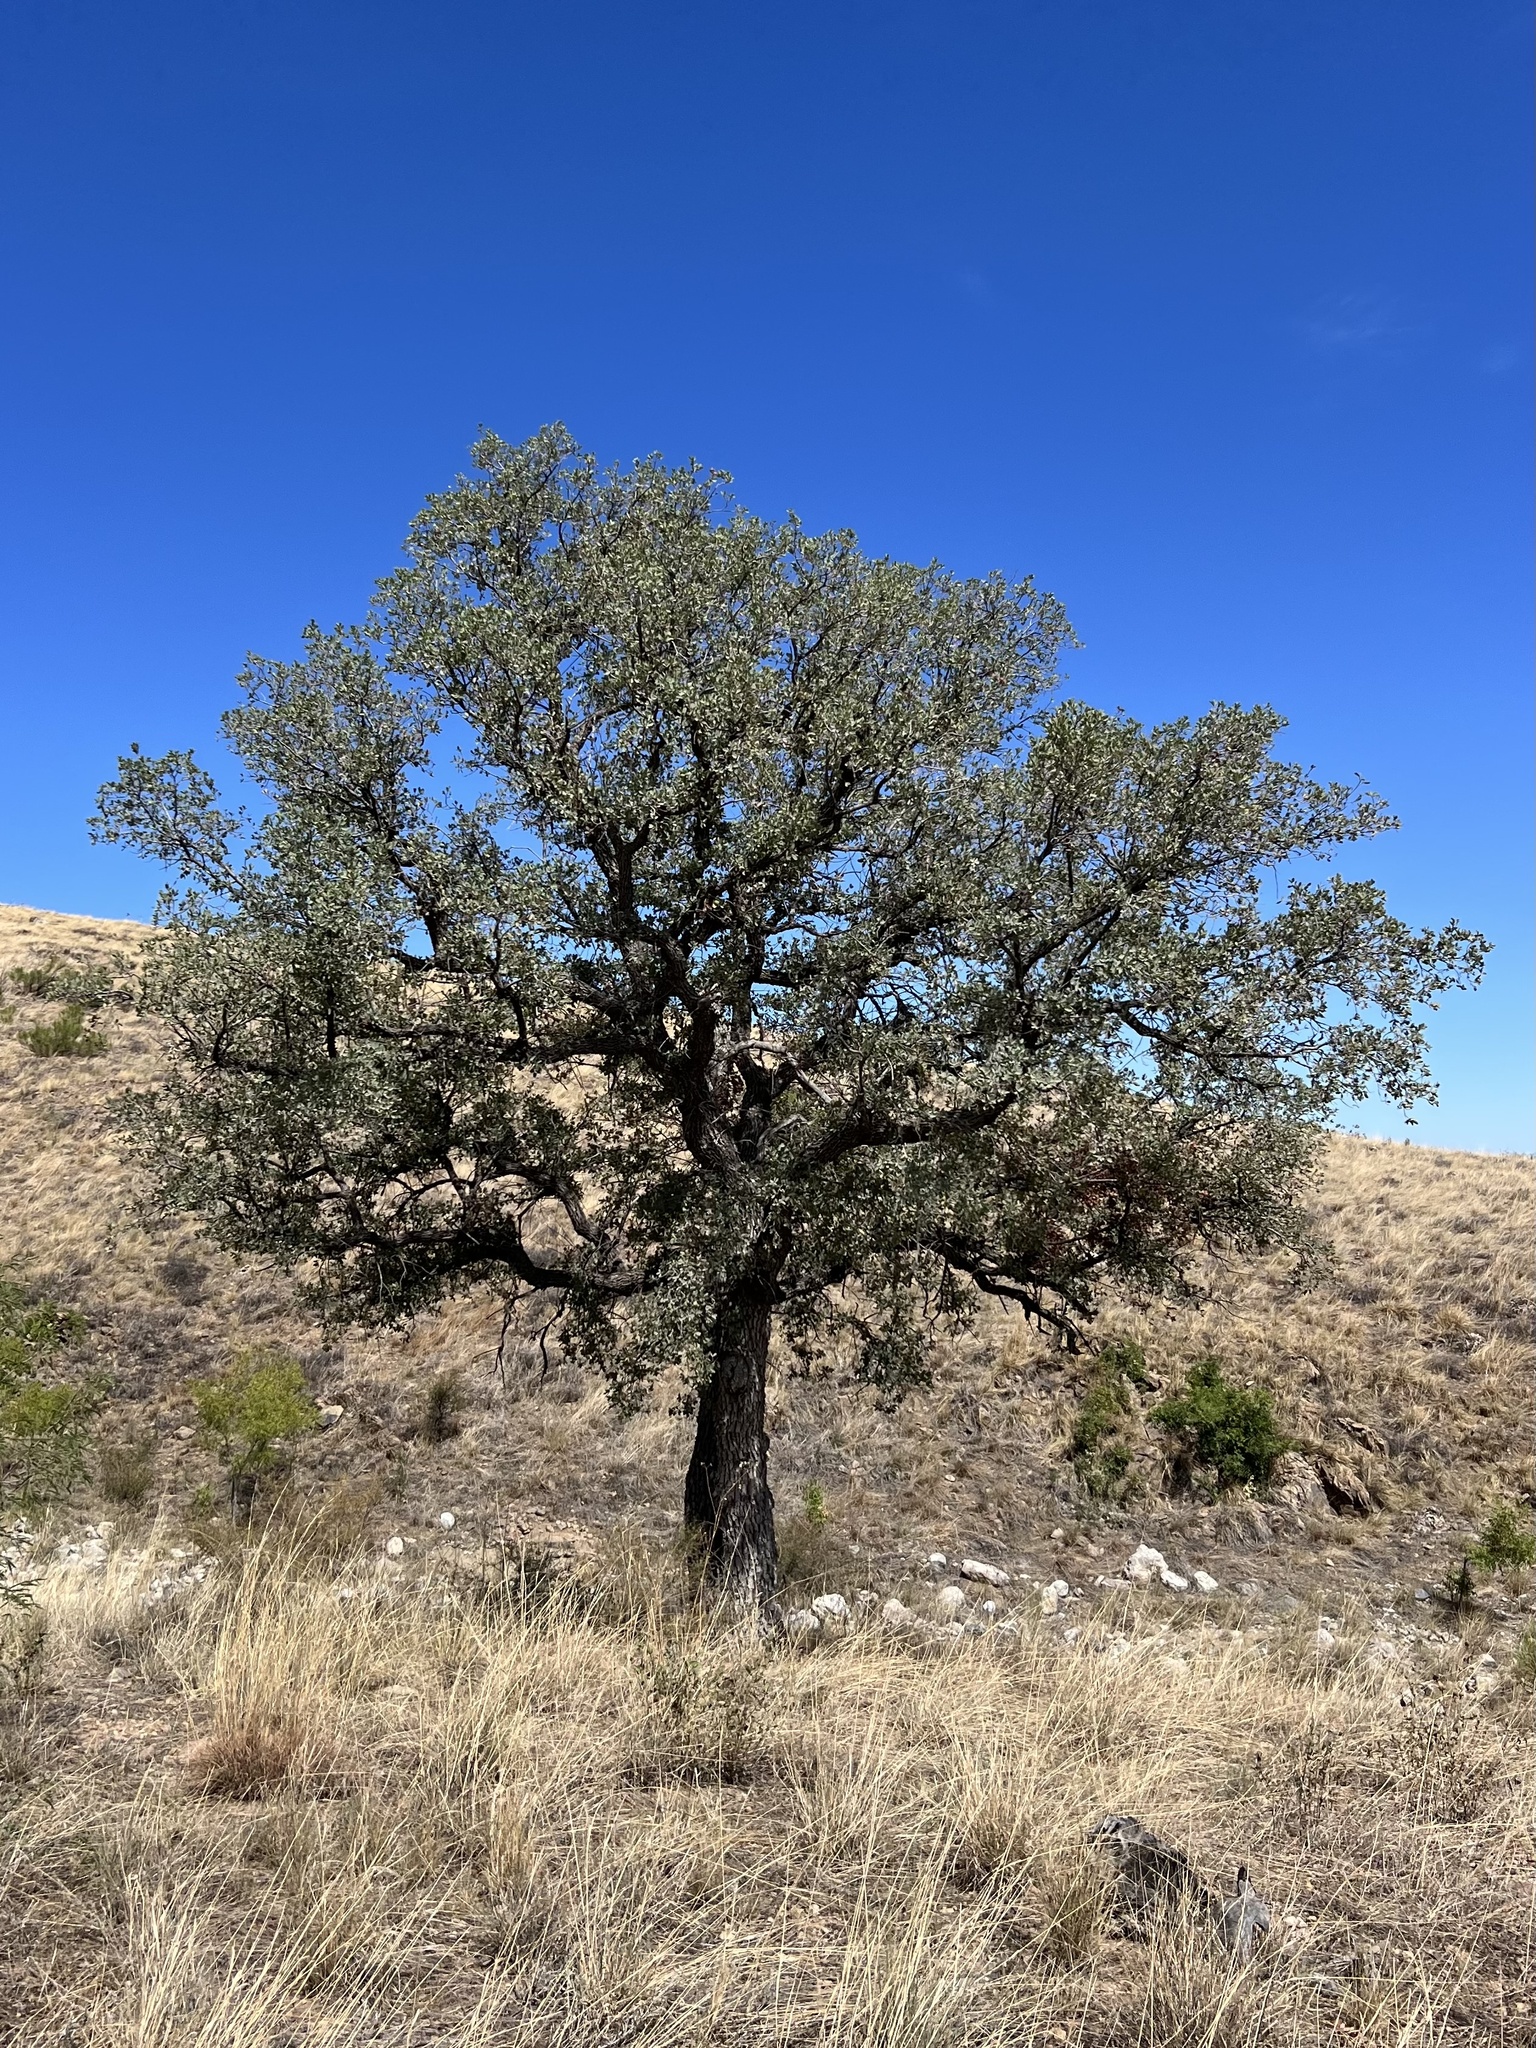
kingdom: Plantae
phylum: Tracheophyta
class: Magnoliopsida
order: Fagales
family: Fagaceae
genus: Quercus
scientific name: Quercus oblongifolia
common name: Mexican blue oak
